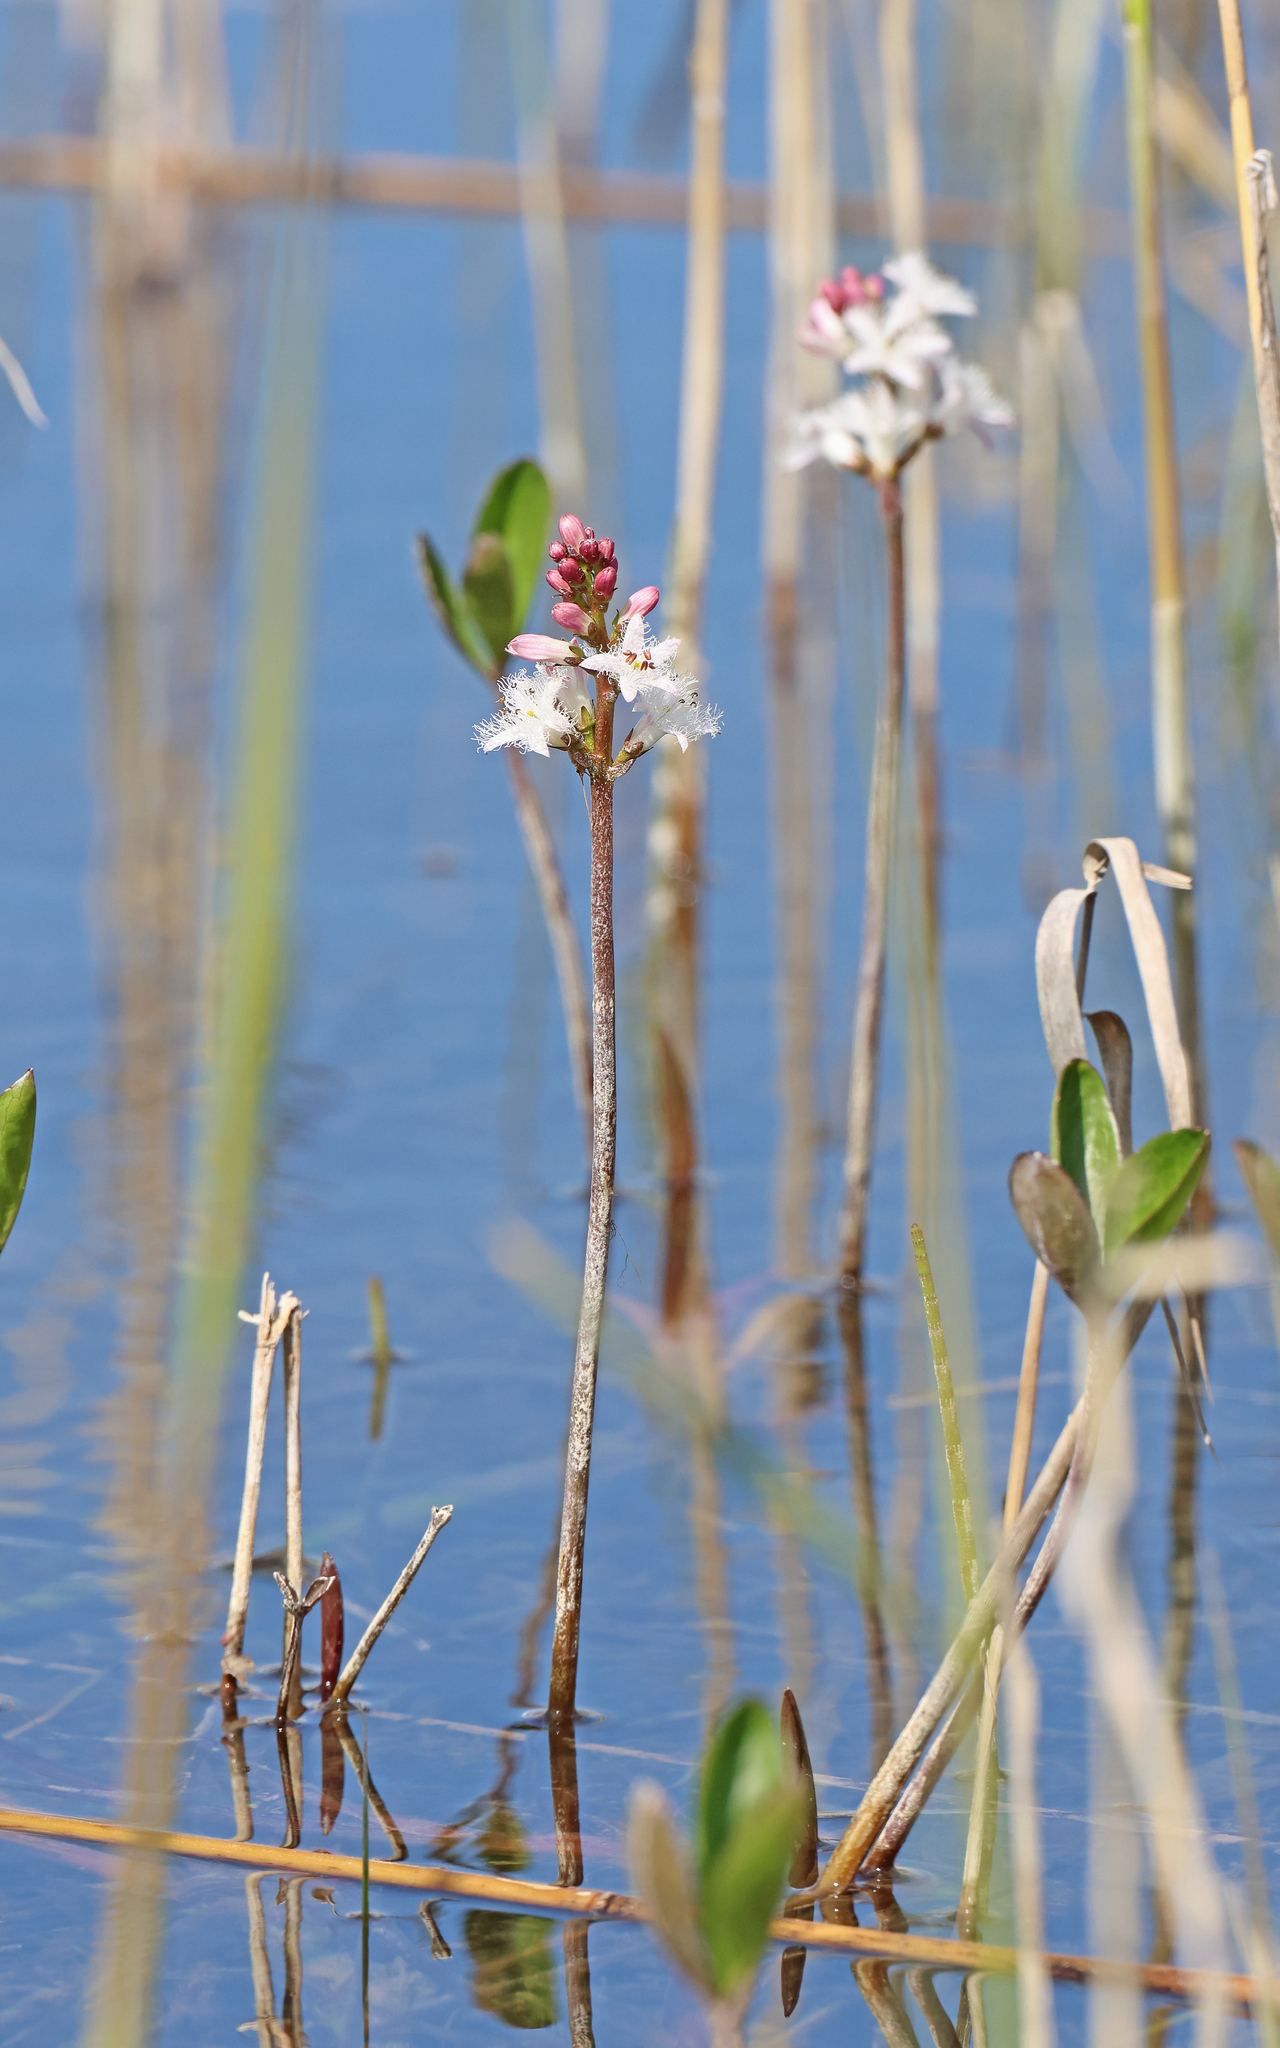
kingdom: Plantae
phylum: Tracheophyta
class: Magnoliopsida
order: Asterales
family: Menyanthaceae
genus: Menyanthes
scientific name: Menyanthes trifoliata
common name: Bogbean
